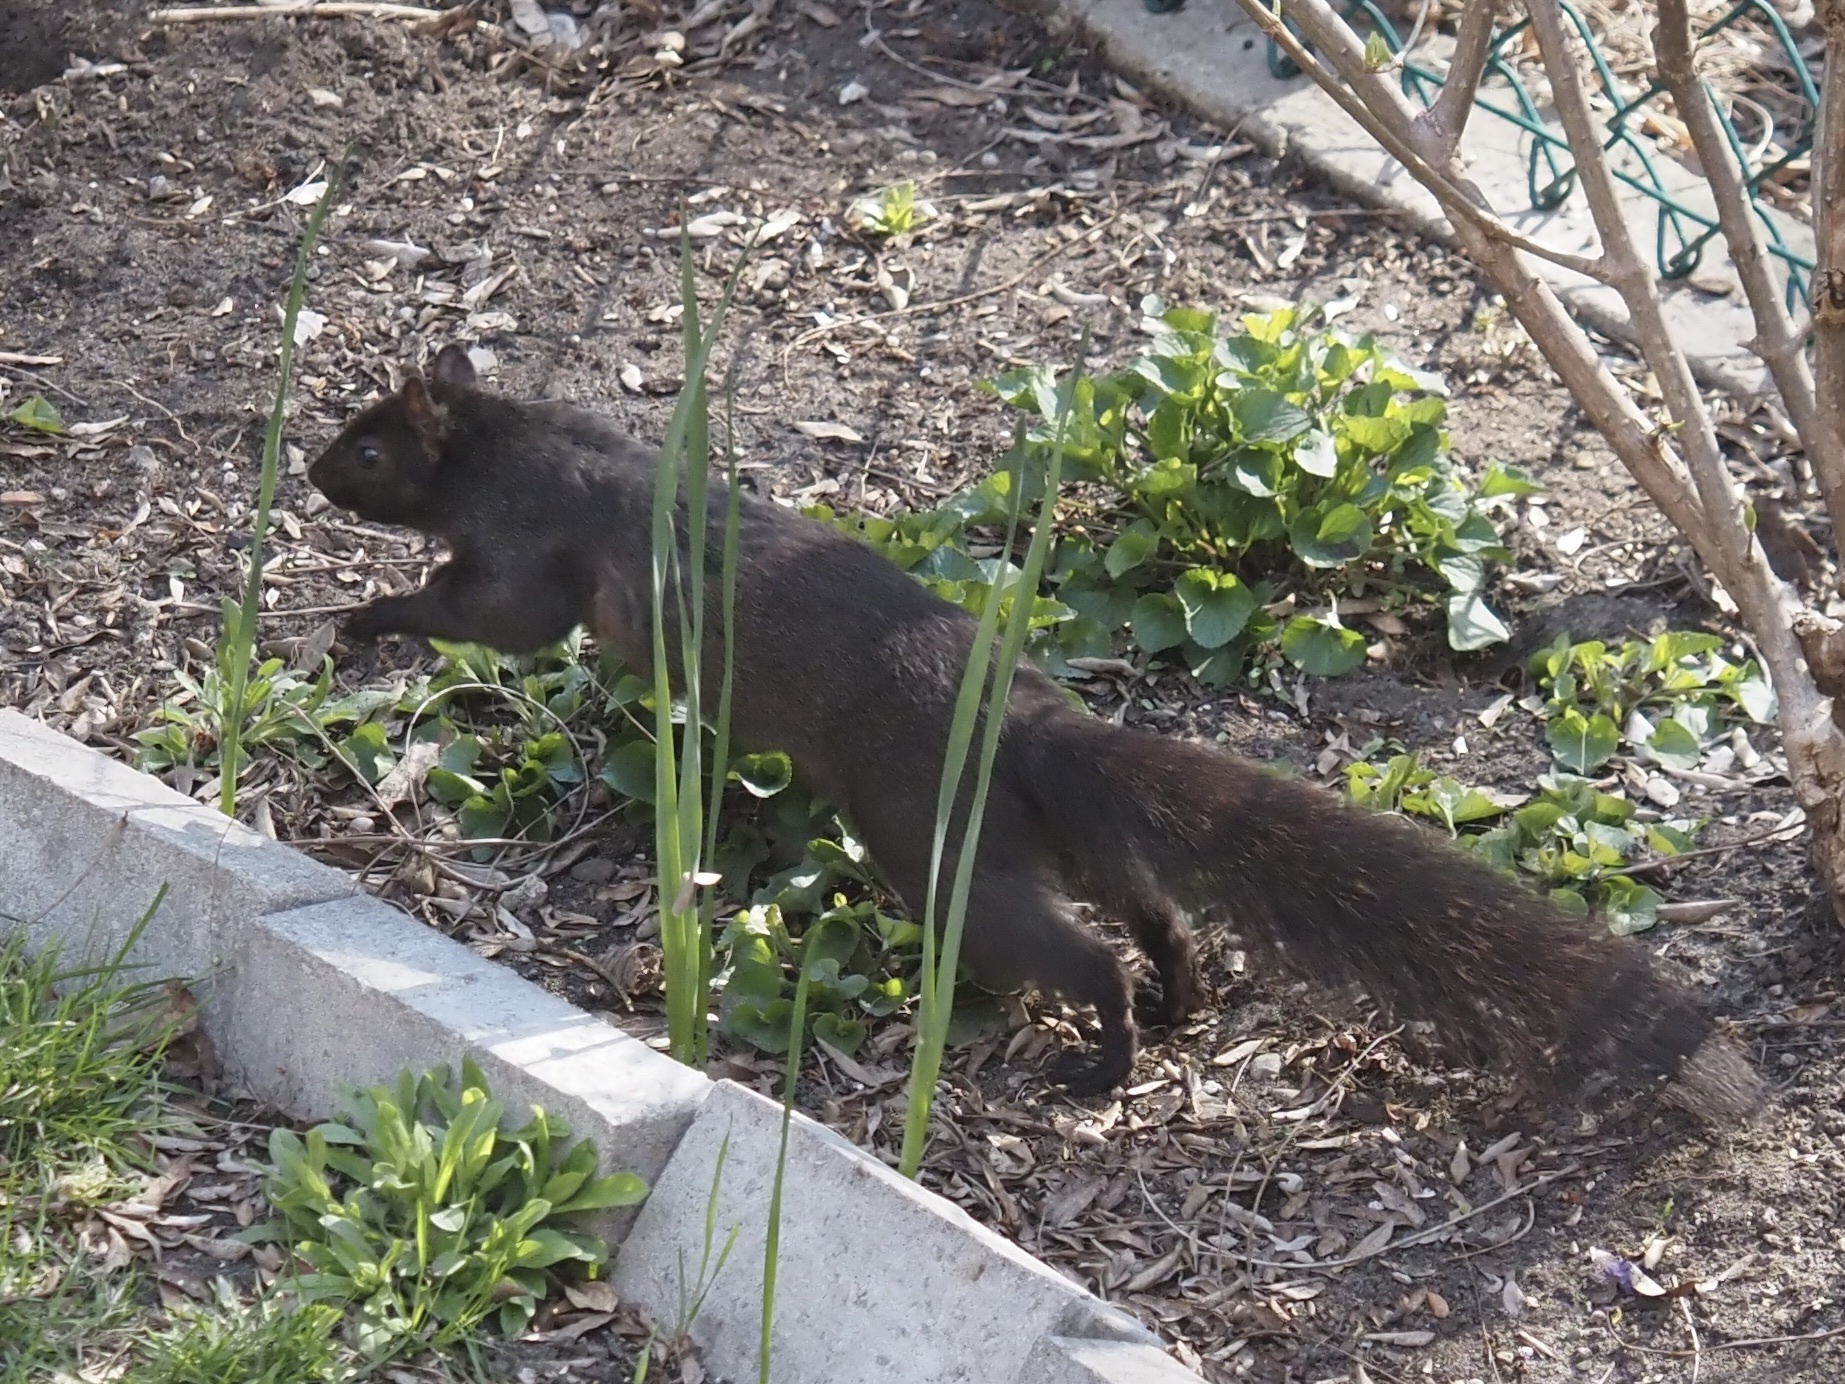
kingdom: Animalia
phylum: Chordata
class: Mammalia
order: Rodentia
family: Sciuridae
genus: Sciurus
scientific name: Sciurus carolinensis
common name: Eastern gray squirrel
